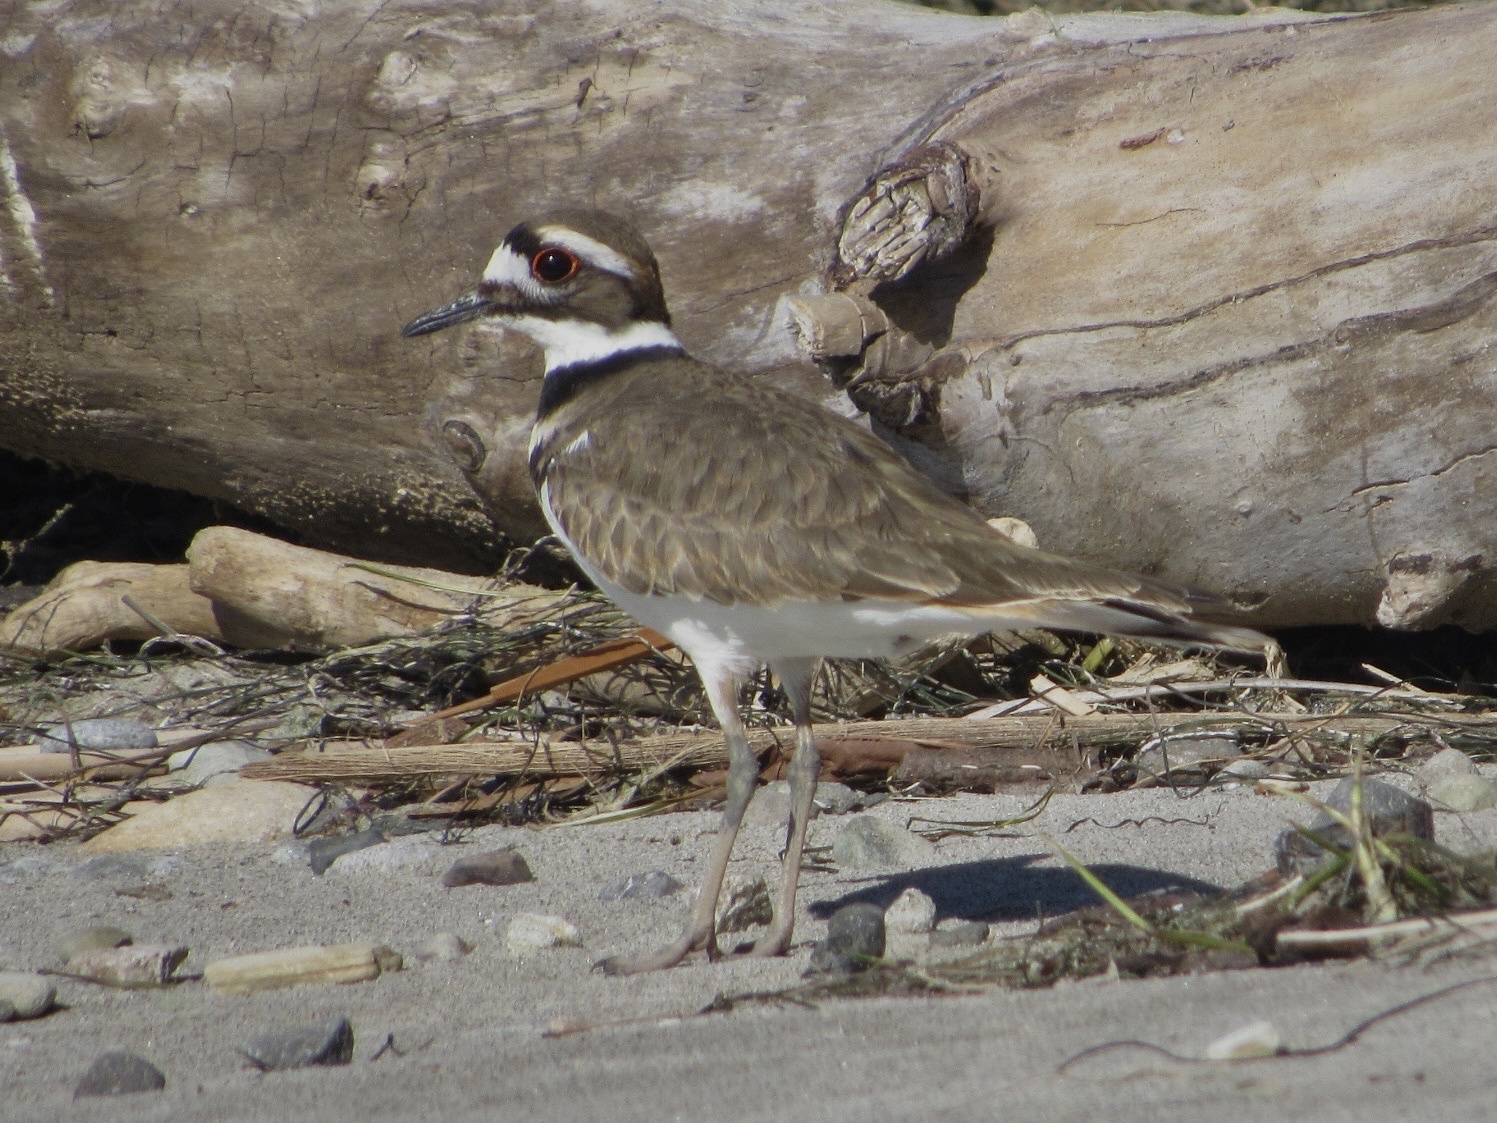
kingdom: Animalia
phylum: Chordata
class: Aves
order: Charadriiformes
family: Charadriidae
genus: Charadrius
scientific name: Charadrius vociferus
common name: Killdeer
